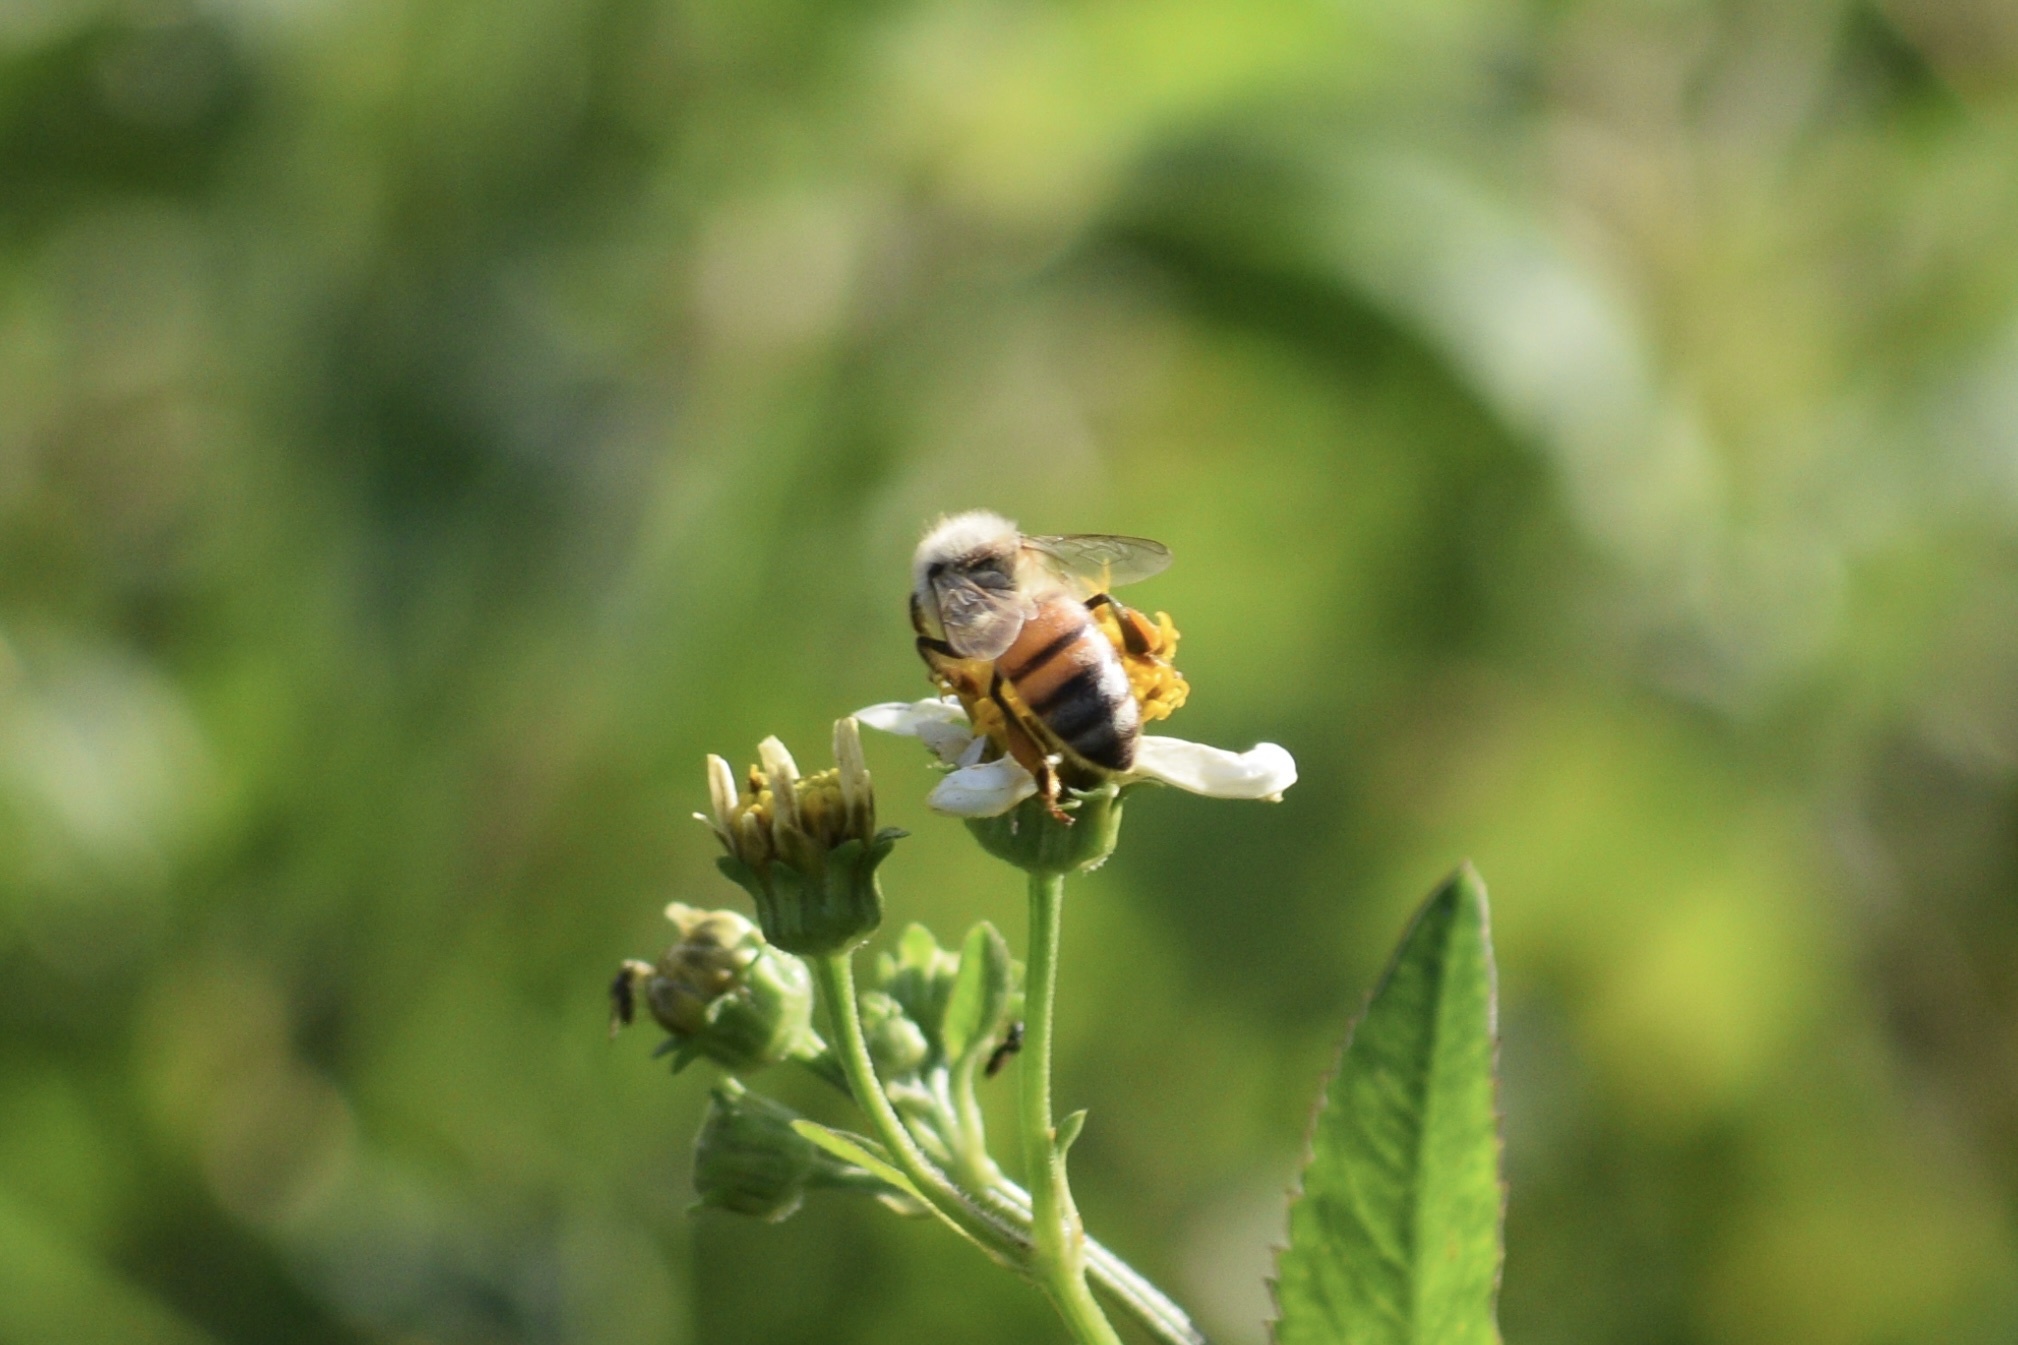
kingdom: Animalia
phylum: Arthropoda
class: Insecta
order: Hymenoptera
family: Apidae
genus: Apis
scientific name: Apis mellifera
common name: Honey bee
